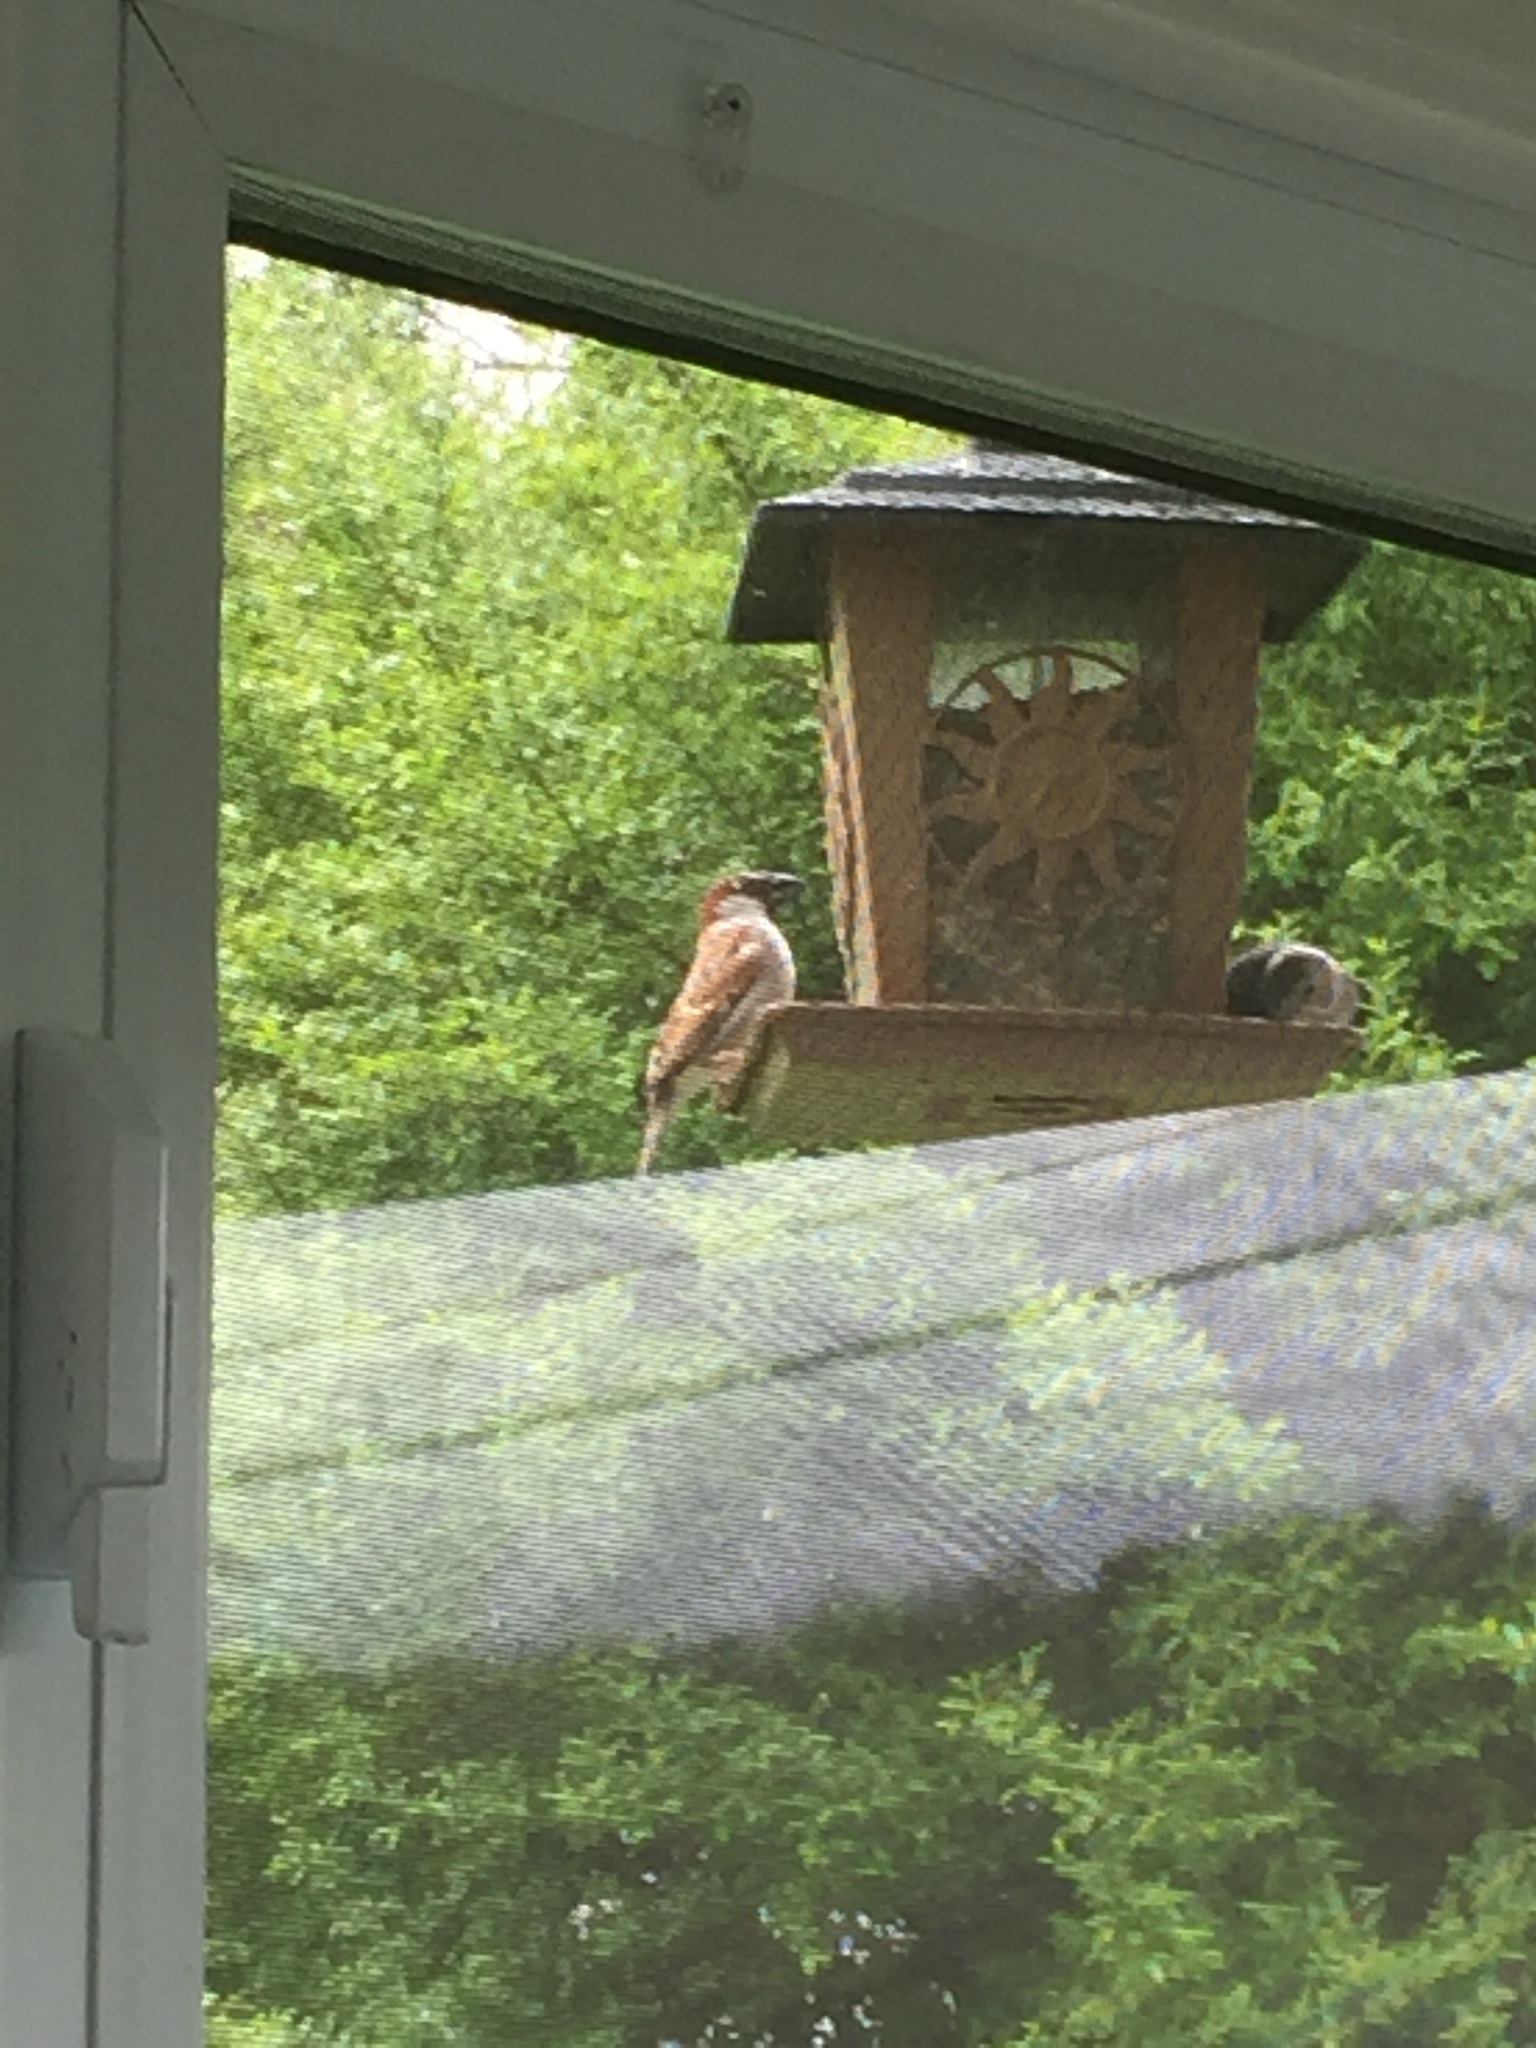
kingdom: Animalia
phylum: Chordata
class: Aves
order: Passeriformes
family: Passeridae
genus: Passer
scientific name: Passer domesticus
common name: House sparrow
